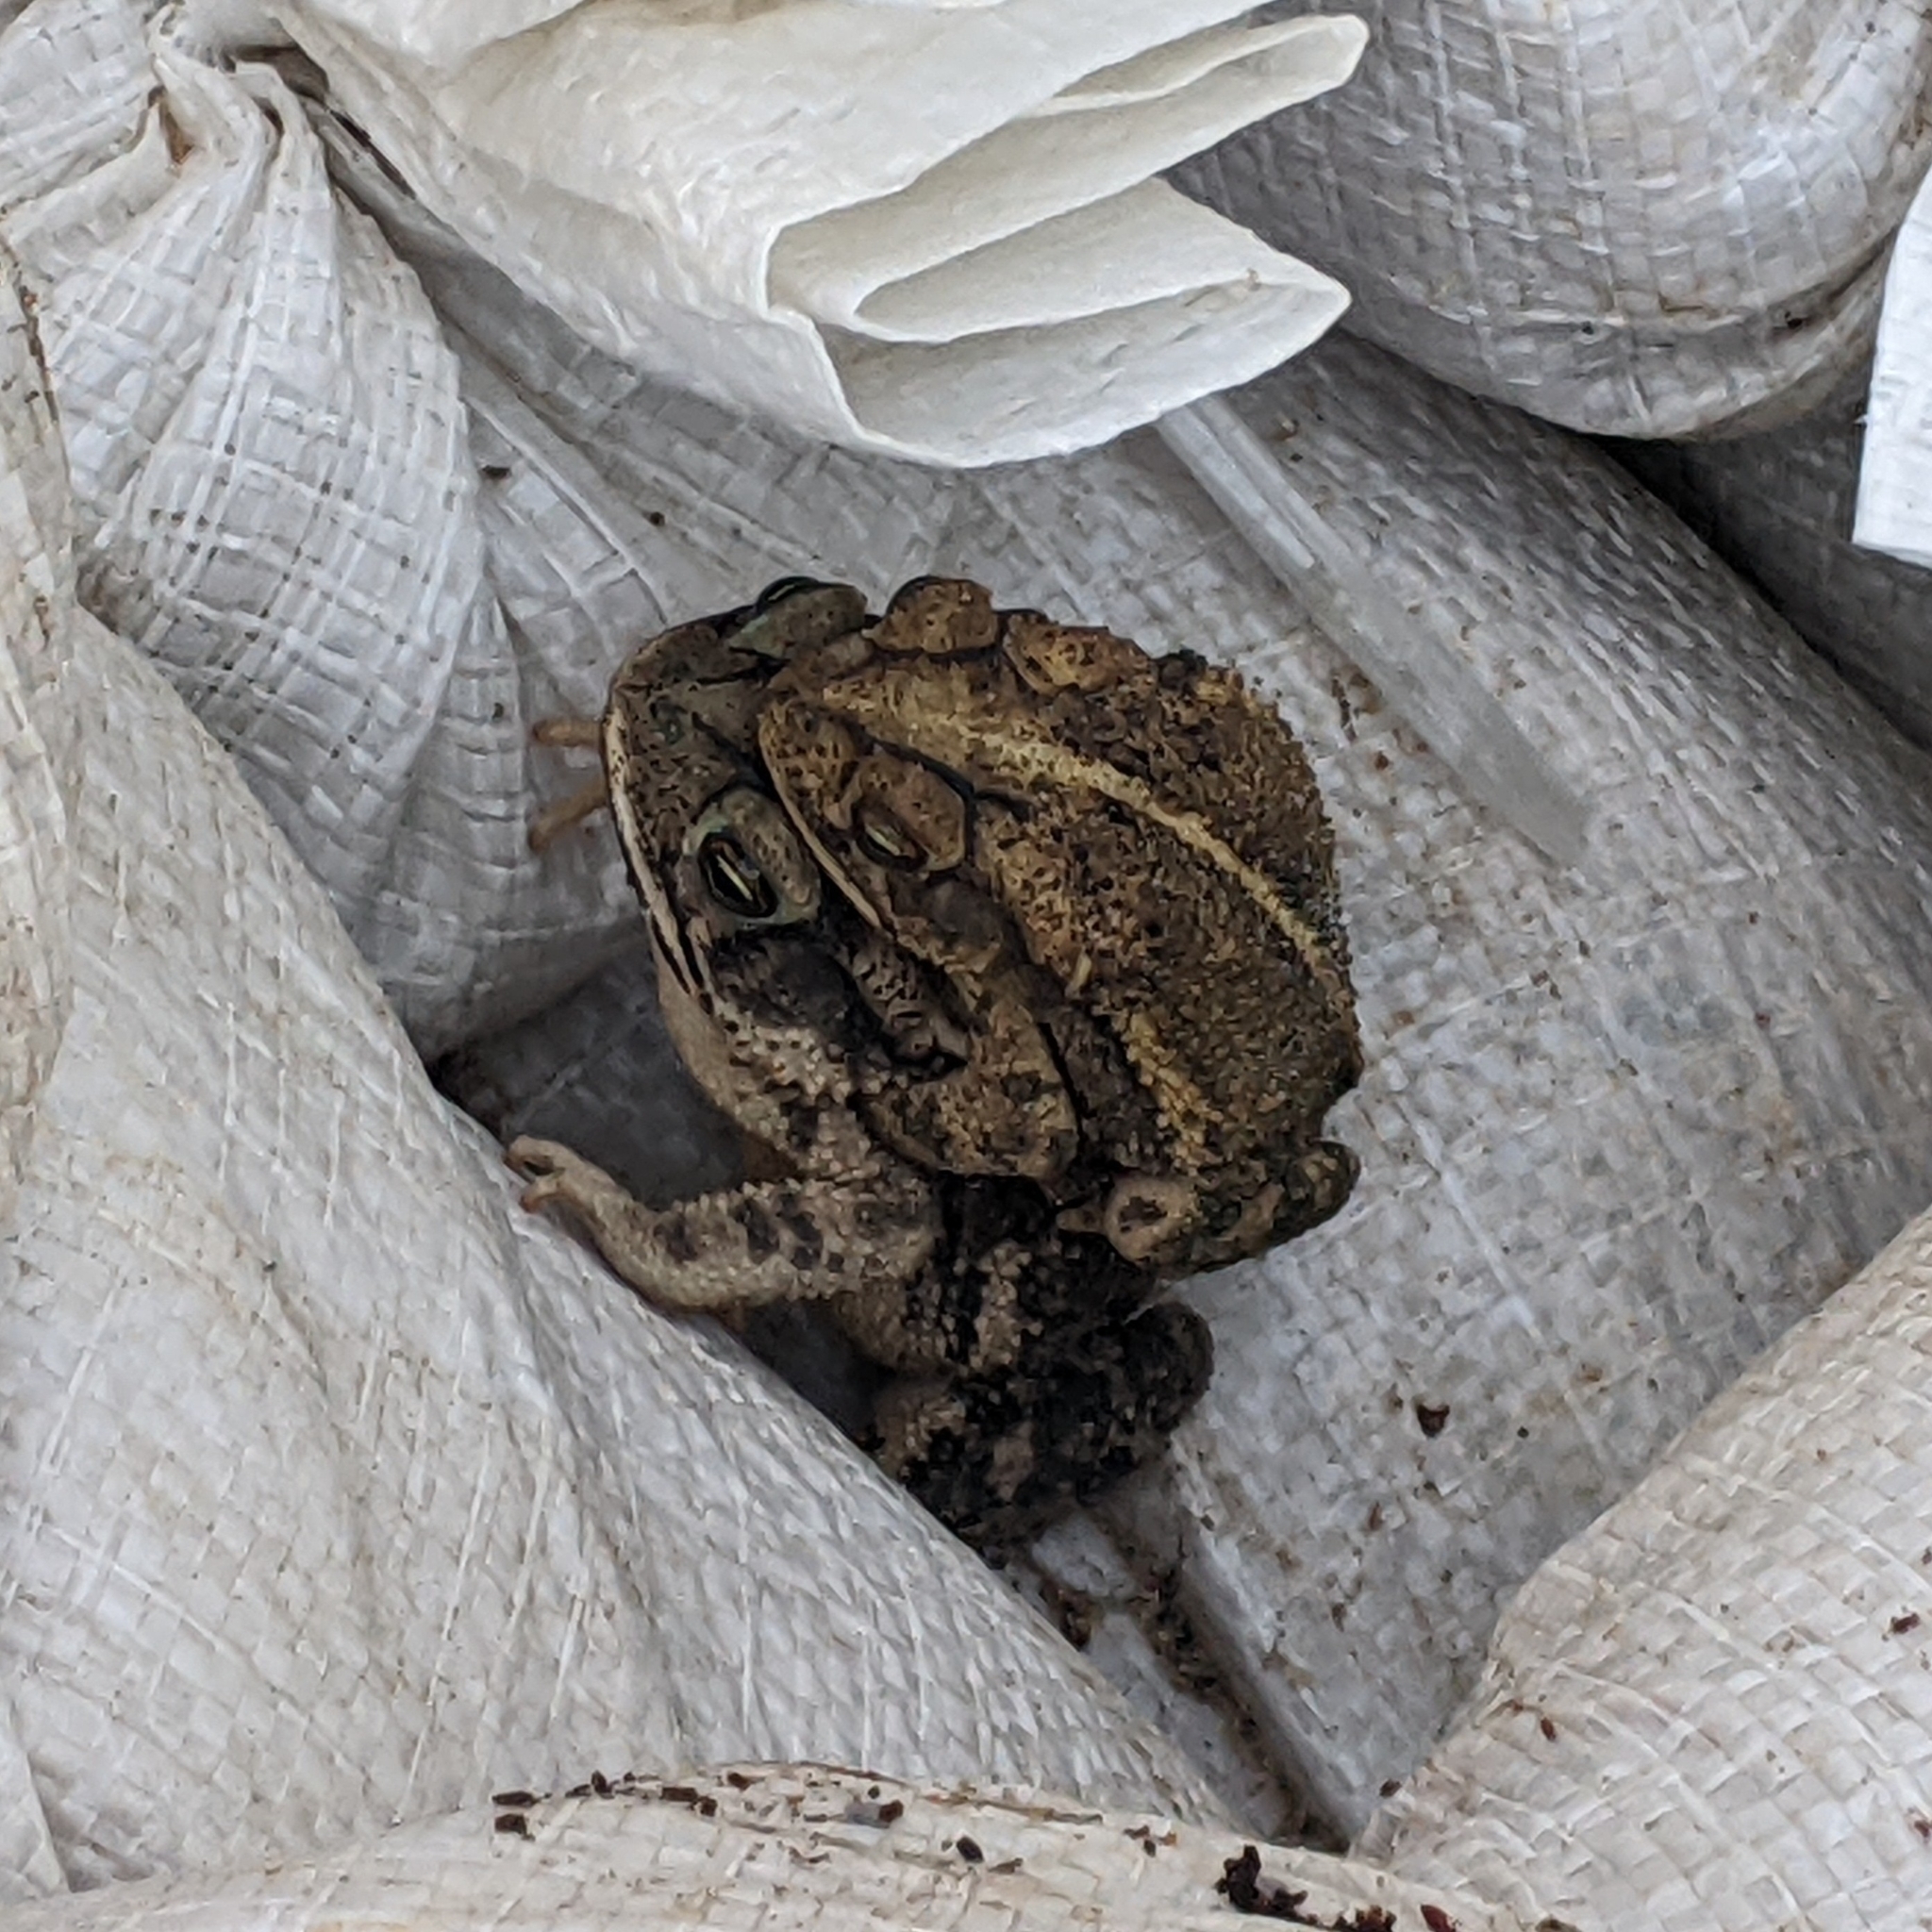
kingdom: Animalia
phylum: Chordata
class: Amphibia
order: Anura
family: Bufonidae
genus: Incilius
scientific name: Incilius nebulifer
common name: Gulf coast toad
